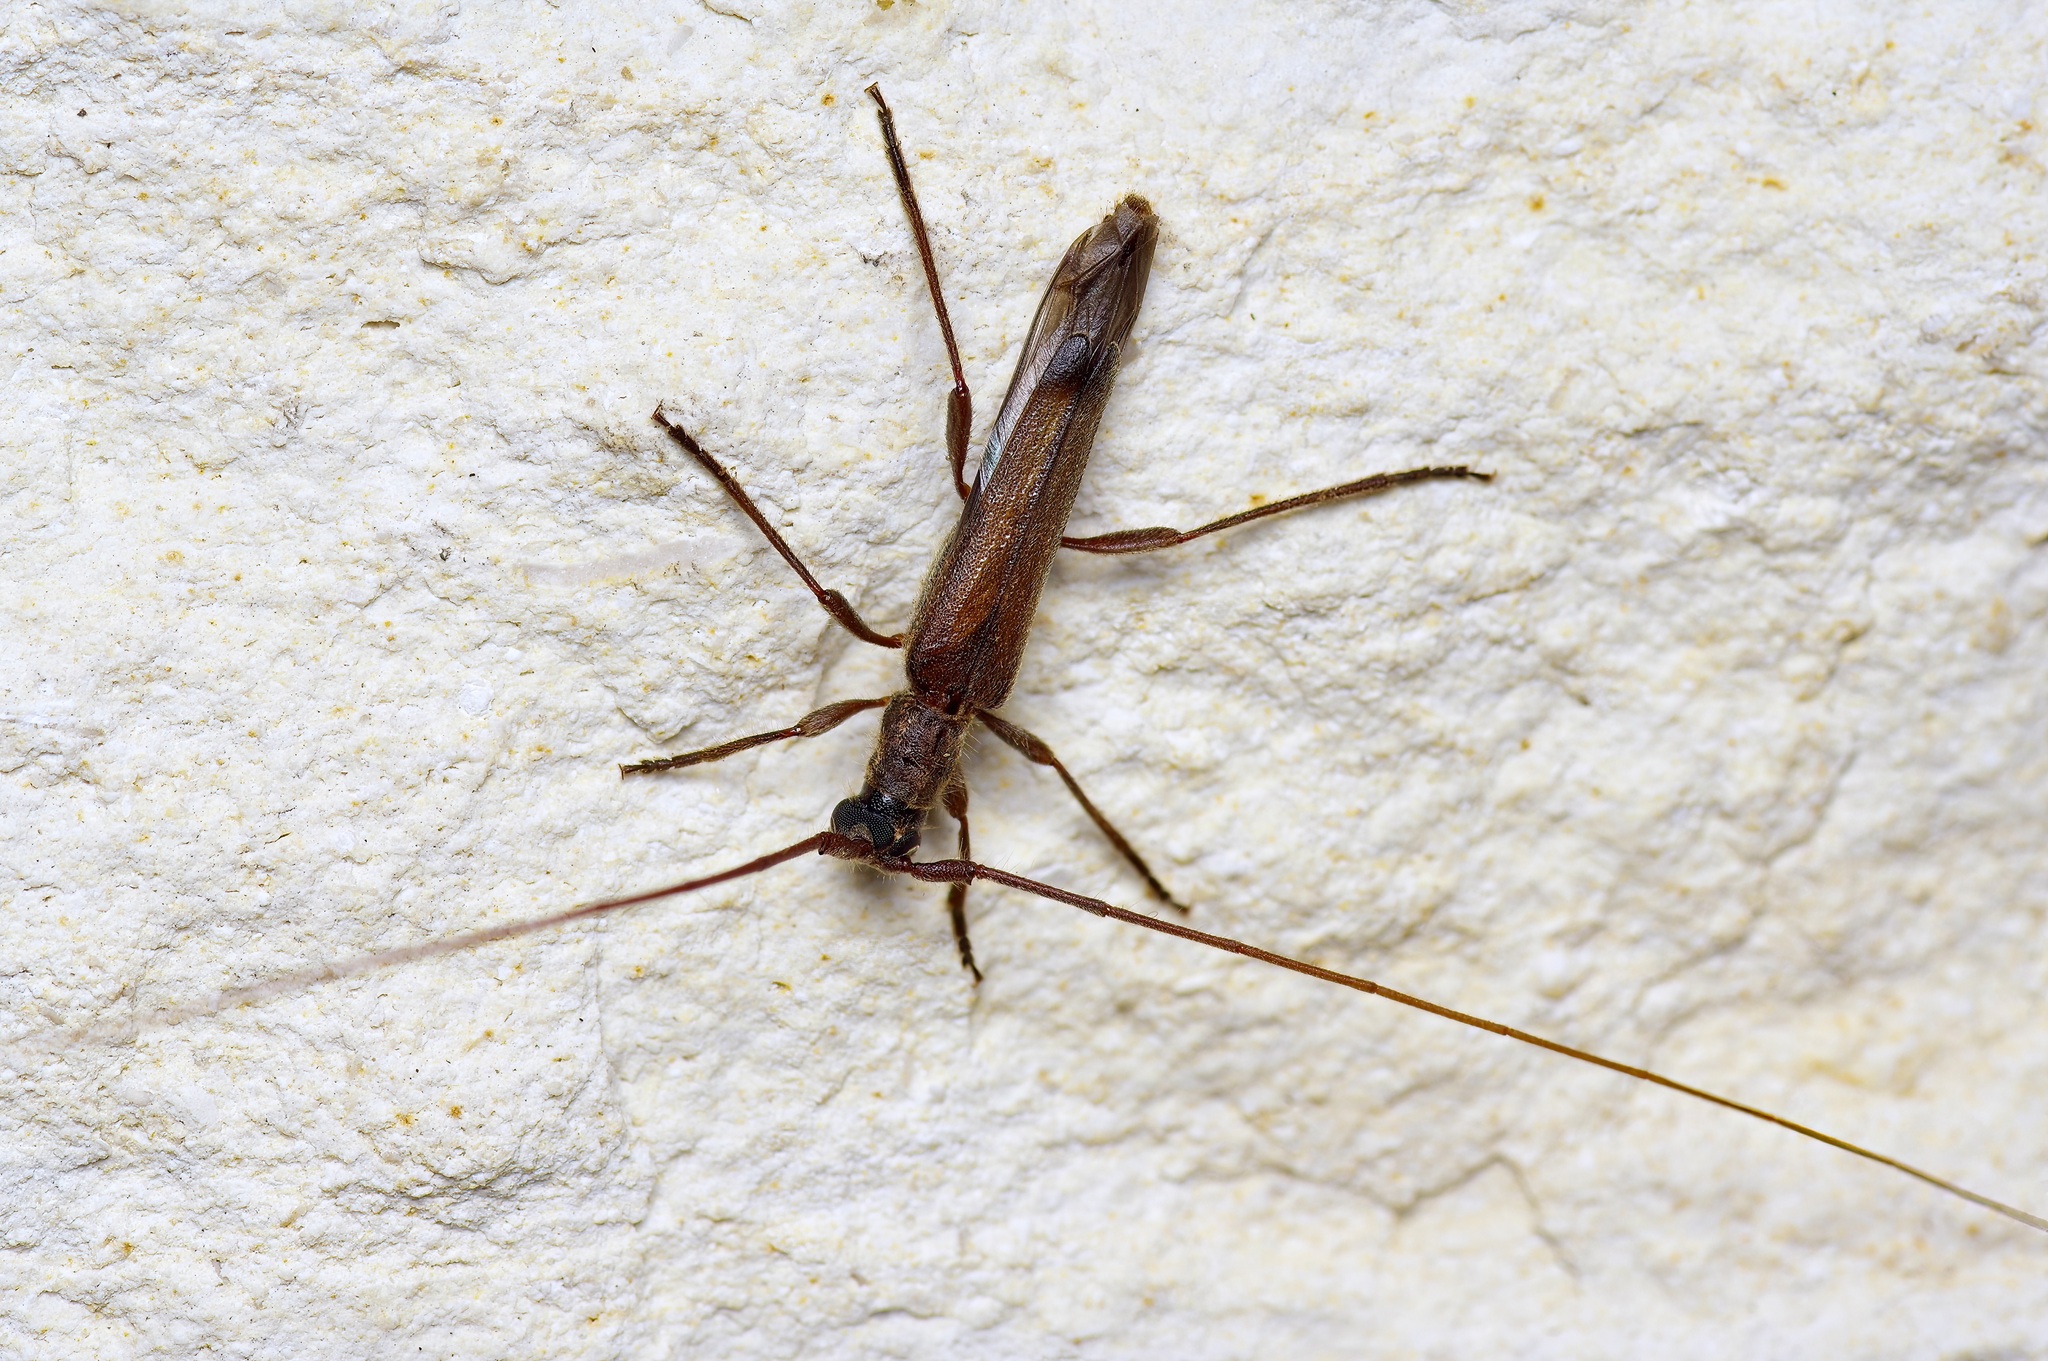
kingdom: Animalia
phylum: Arthropoda
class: Insecta
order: Coleoptera
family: Cerambycidae
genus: Styloxus
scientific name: Styloxus fulleri
